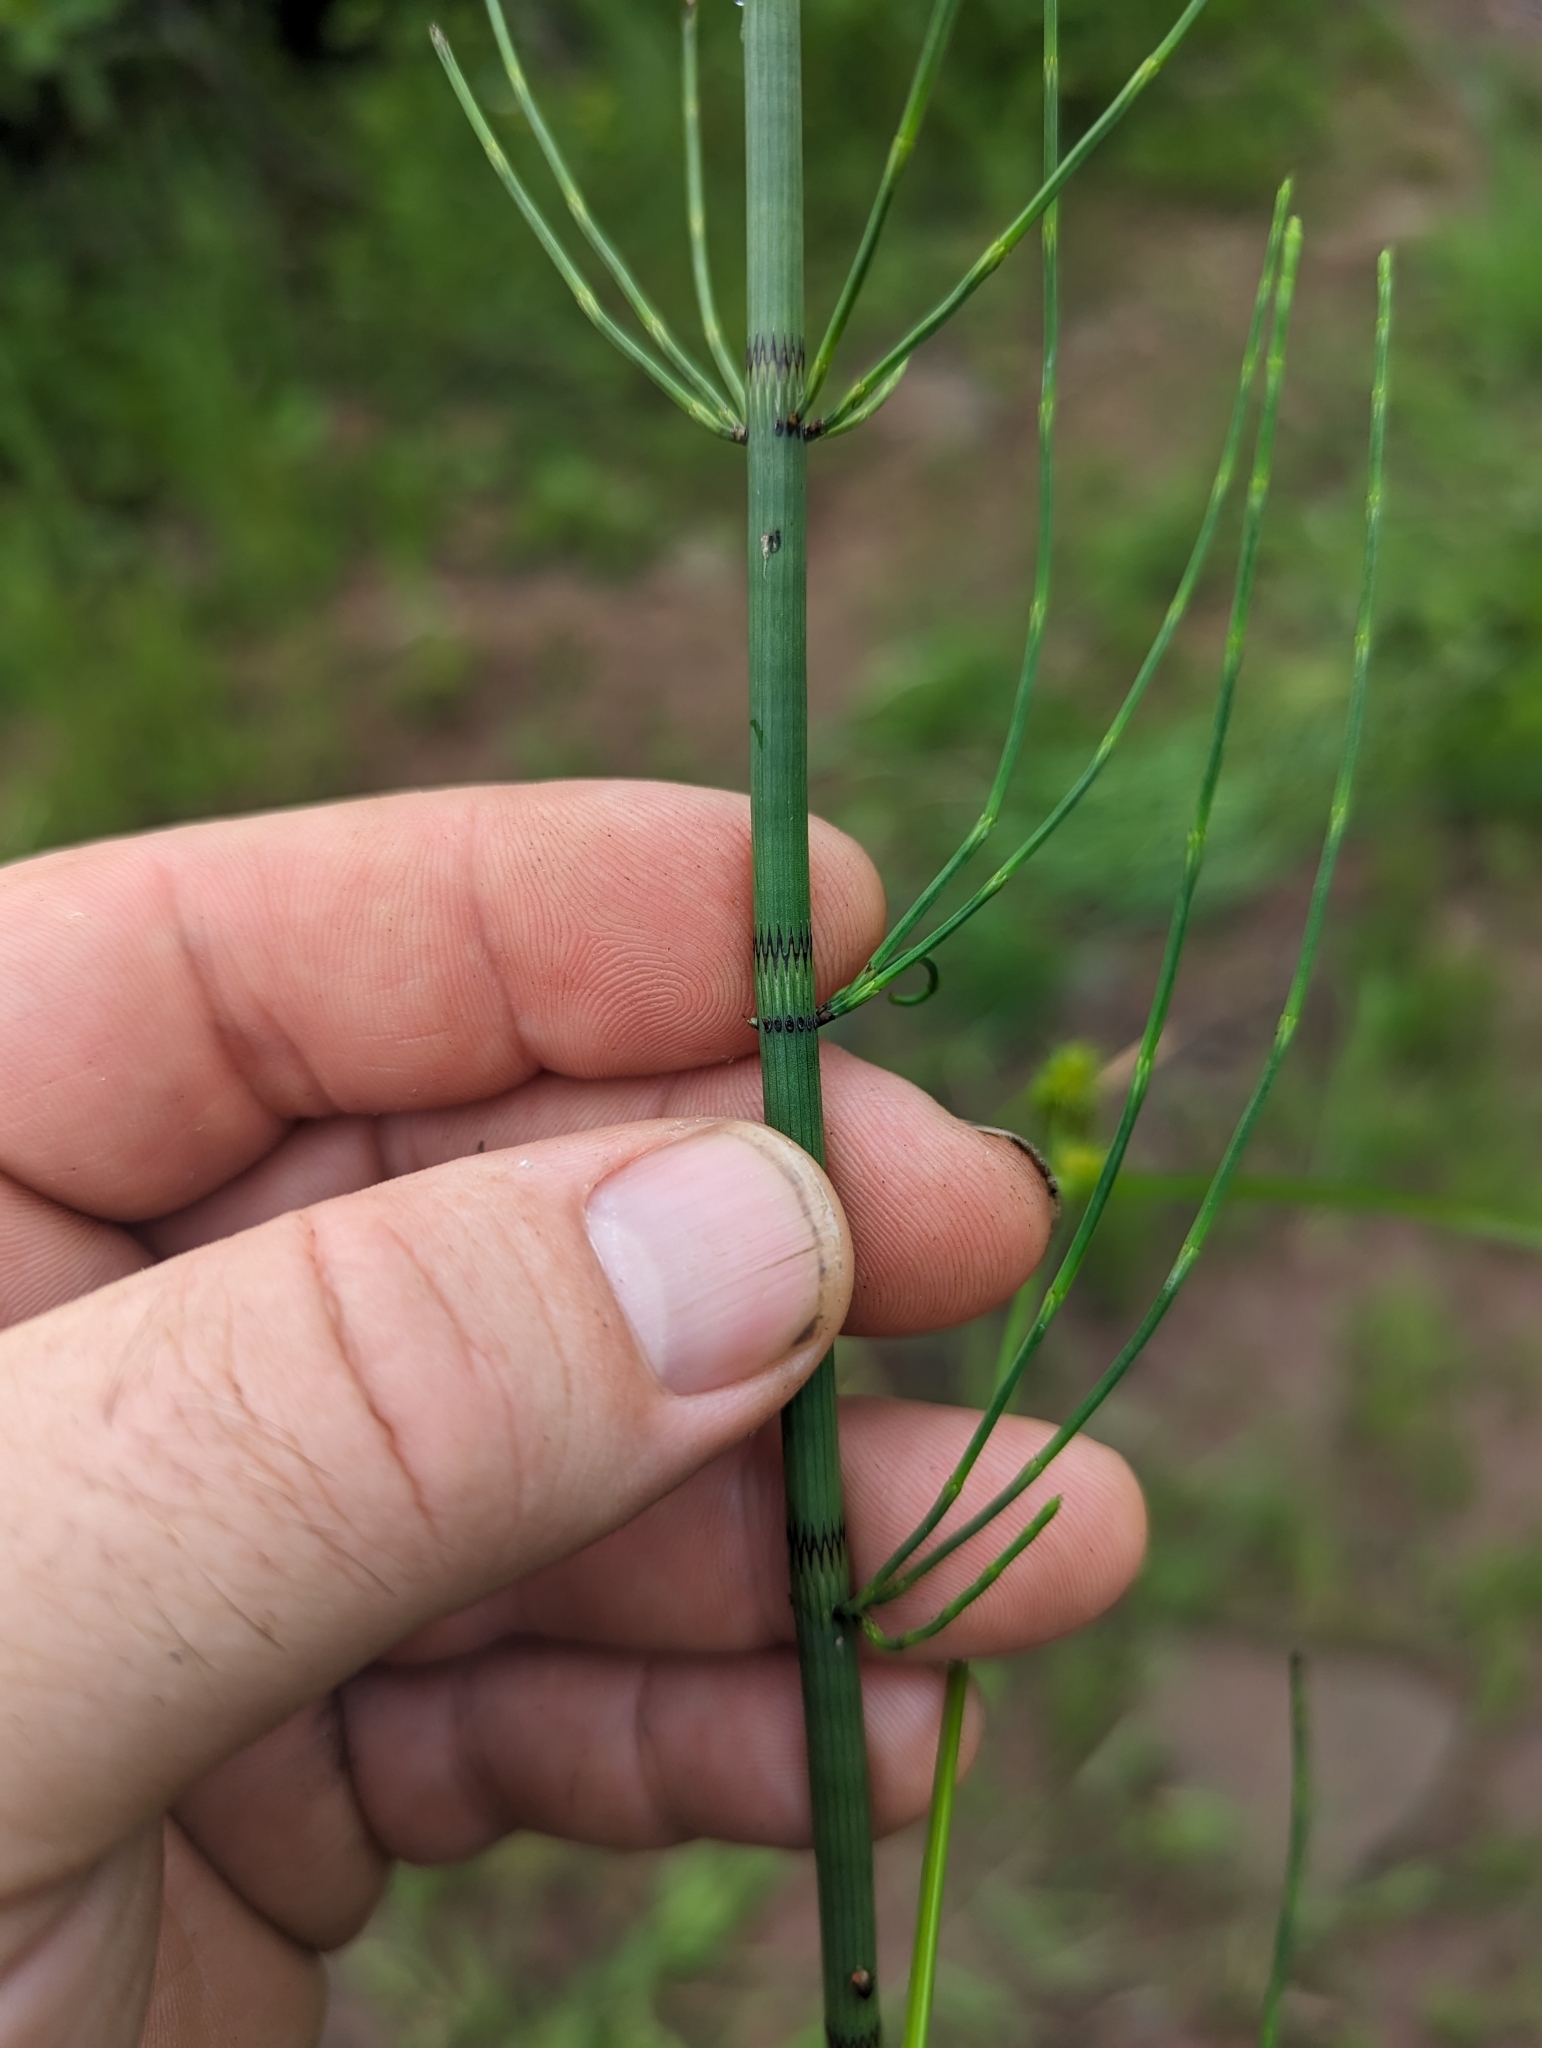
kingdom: Plantae
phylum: Tracheophyta
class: Polypodiopsida
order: Equisetales
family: Equisetaceae
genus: Equisetum
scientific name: Equisetum fluviatile
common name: Water horsetail
